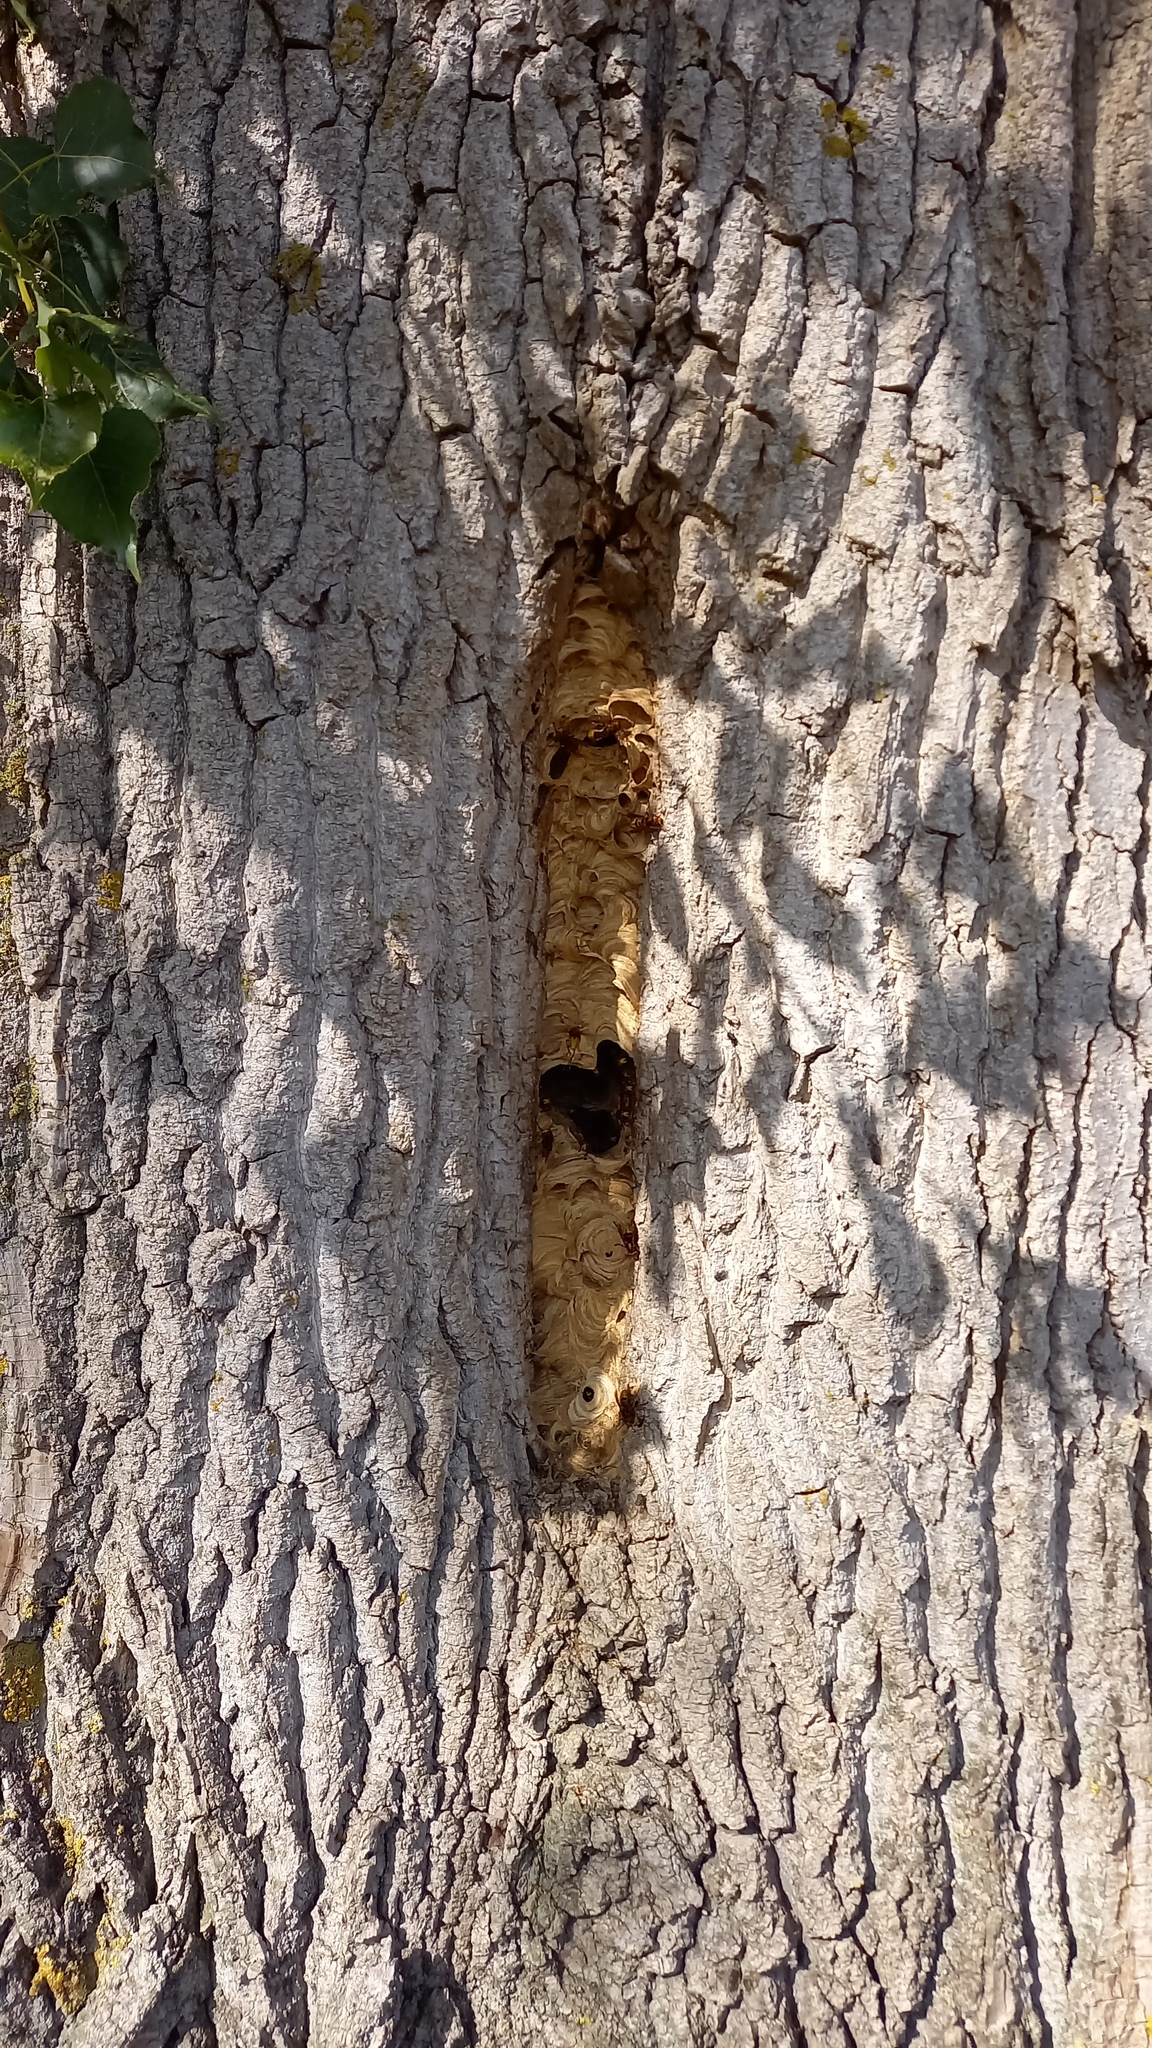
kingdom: Animalia
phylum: Arthropoda
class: Insecta
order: Hymenoptera
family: Vespidae
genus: Vespa
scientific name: Vespa crabro
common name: Hornet
